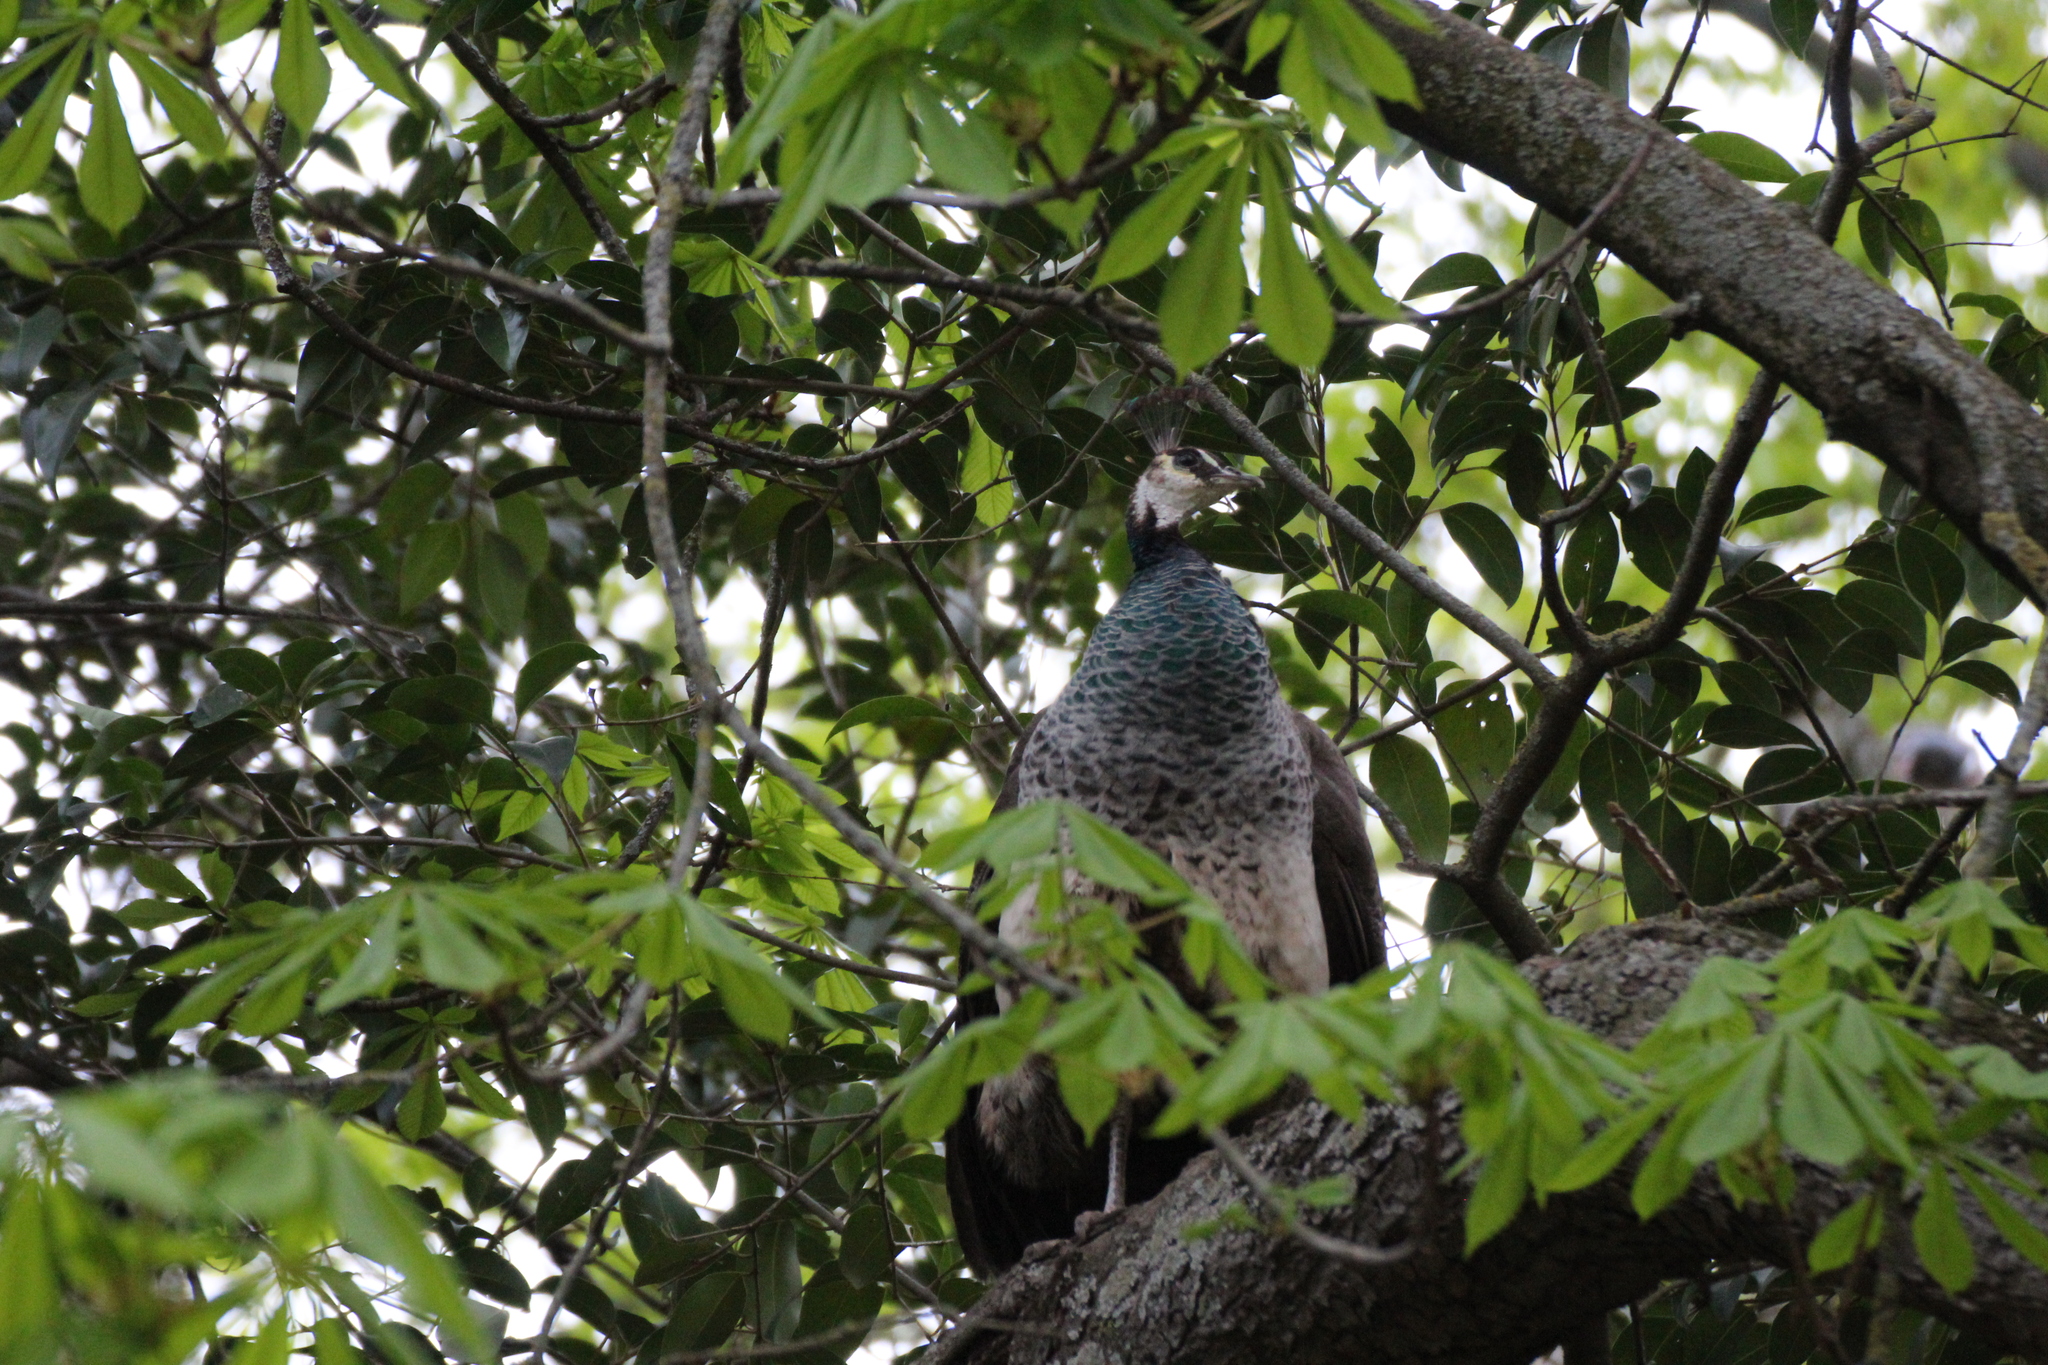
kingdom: Animalia
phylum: Chordata
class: Aves
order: Galliformes
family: Phasianidae
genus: Pavo
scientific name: Pavo cristatus
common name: Indian peafowl
